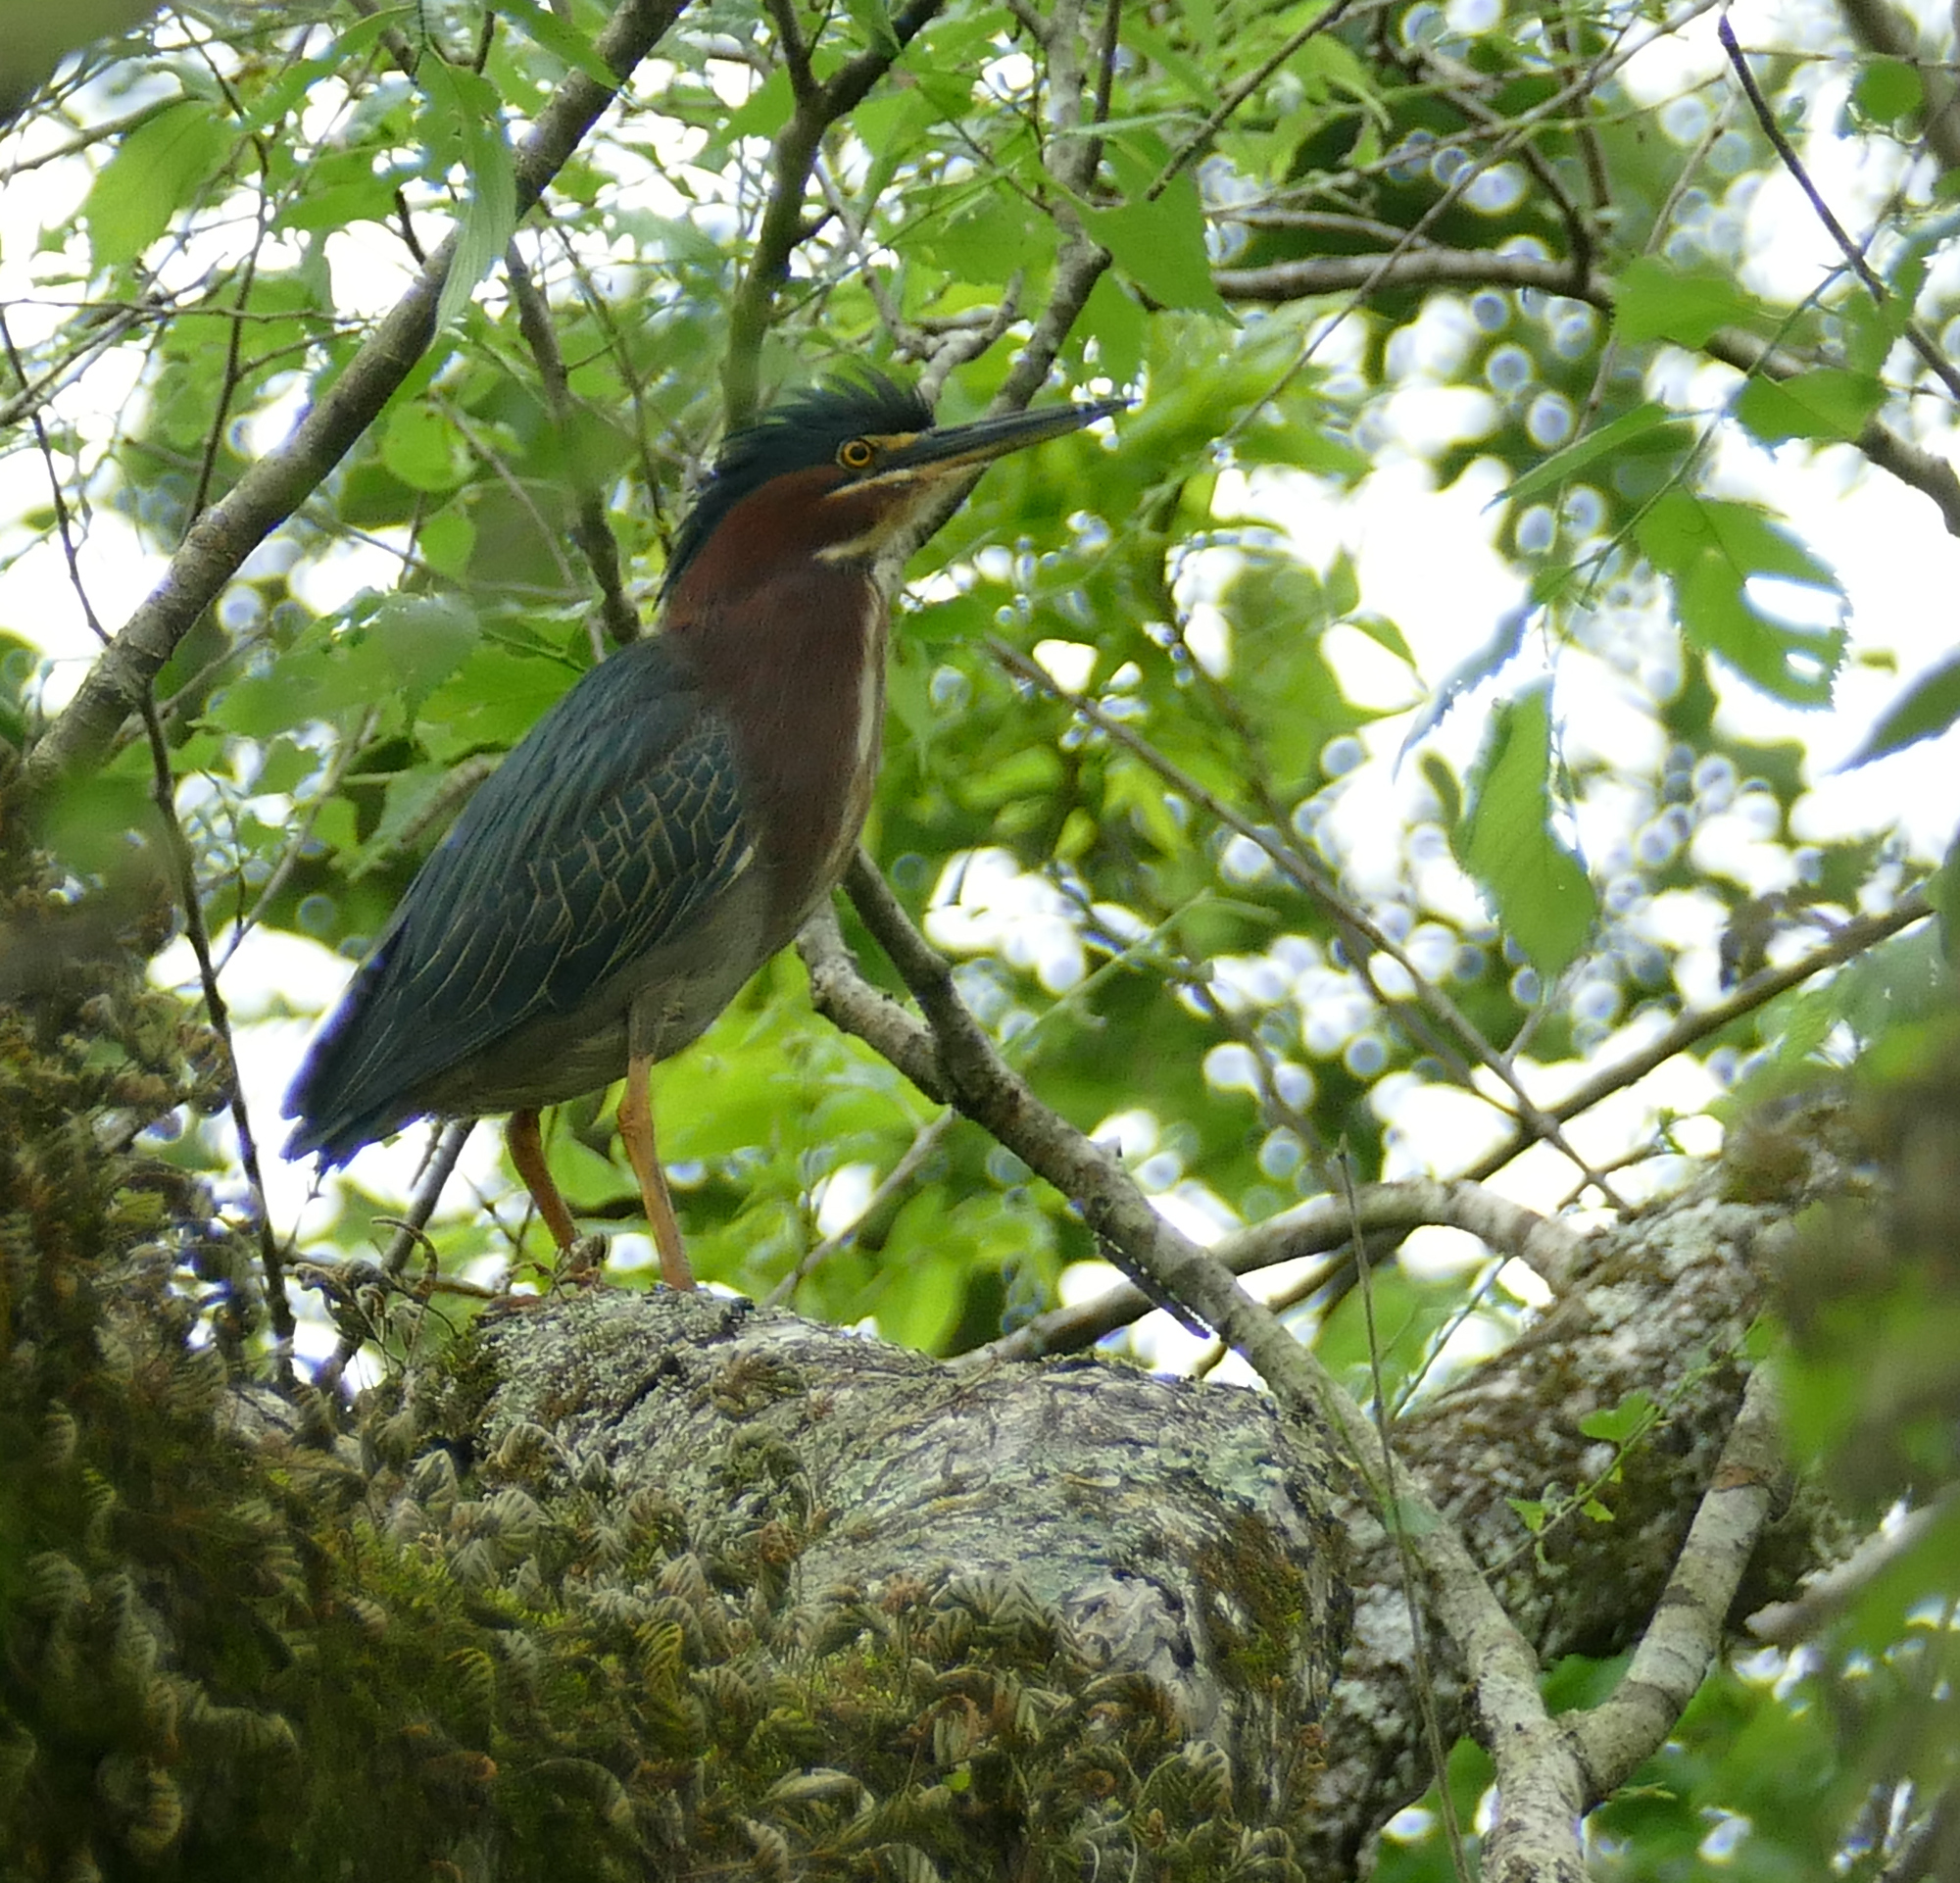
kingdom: Animalia
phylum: Chordata
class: Aves
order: Pelecaniformes
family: Ardeidae
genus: Butorides
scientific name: Butorides virescens
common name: Green heron
